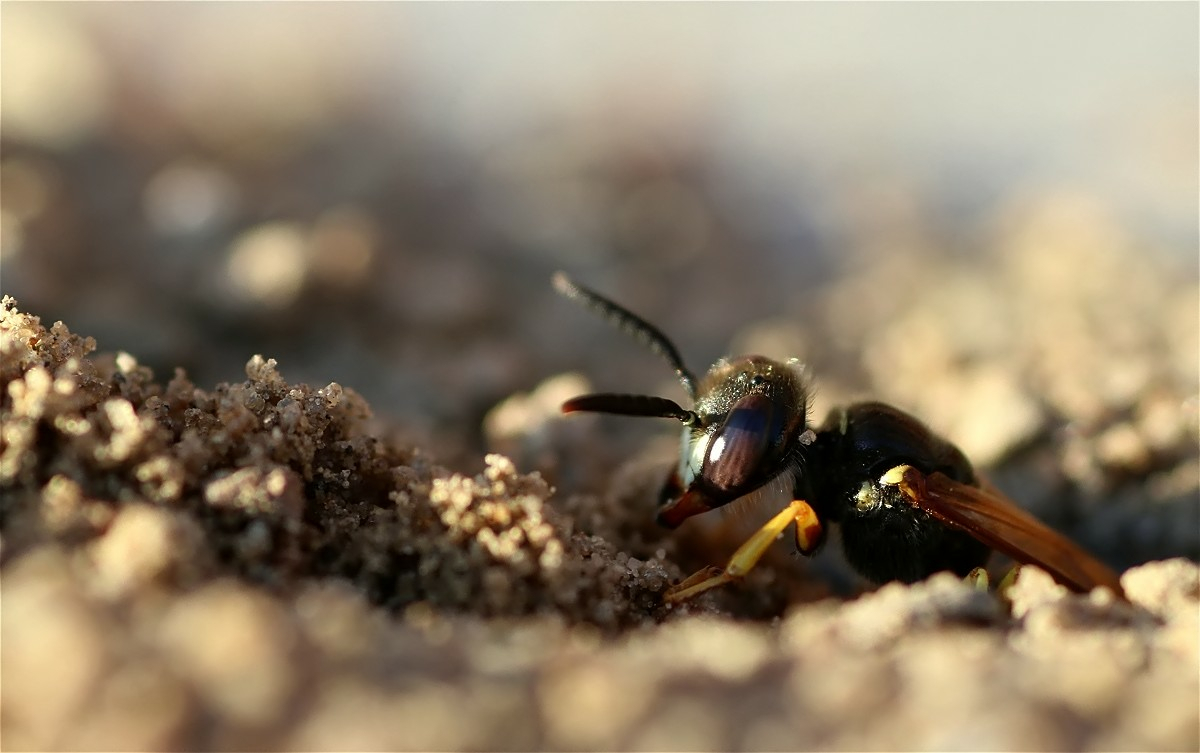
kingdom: Animalia
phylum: Arthropoda
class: Insecta
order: Hymenoptera
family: Crabronidae
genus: Philanthus
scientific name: Philanthus triangulum
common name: Bee wolf
